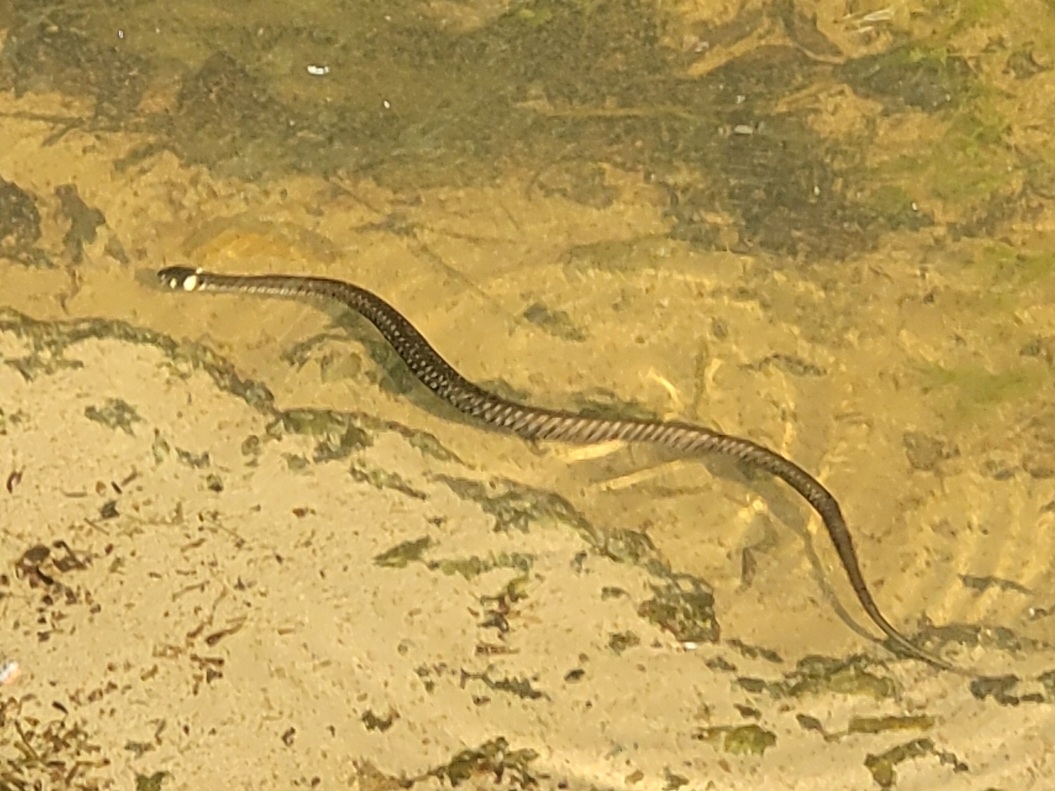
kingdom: Animalia
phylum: Chordata
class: Squamata
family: Colubridae
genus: Natrix
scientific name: Natrix natrix
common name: Grass snake
